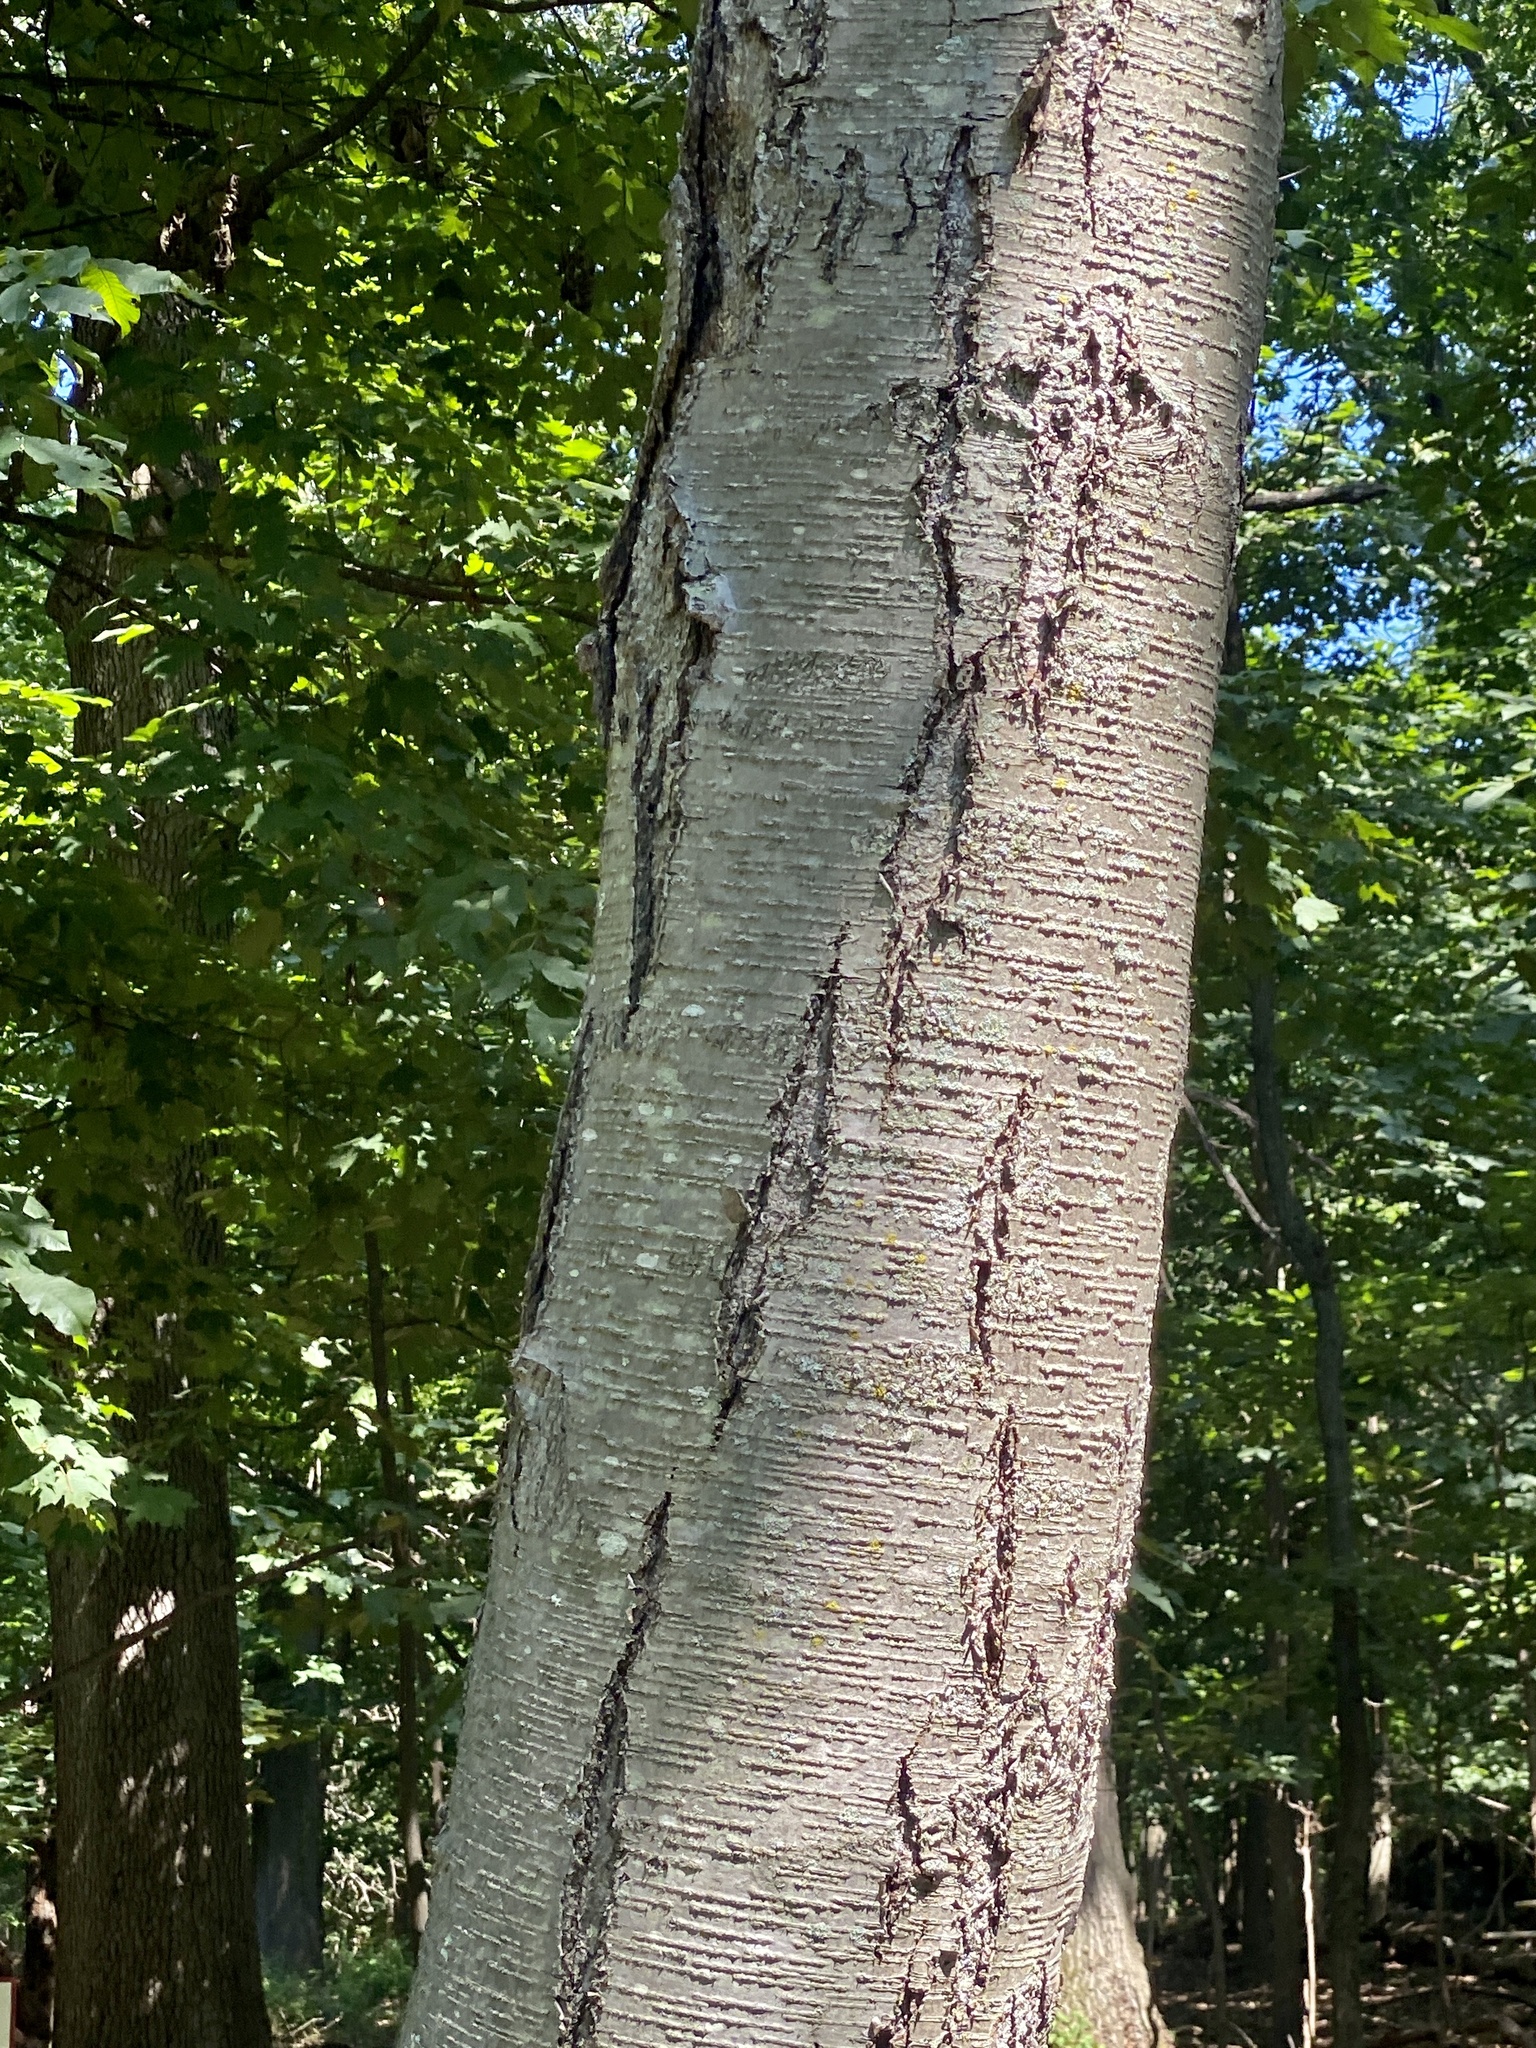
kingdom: Plantae
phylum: Tracheophyta
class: Magnoliopsida
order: Fagales
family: Betulaceae
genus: Betula
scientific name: Betula lenta
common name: Black birch
